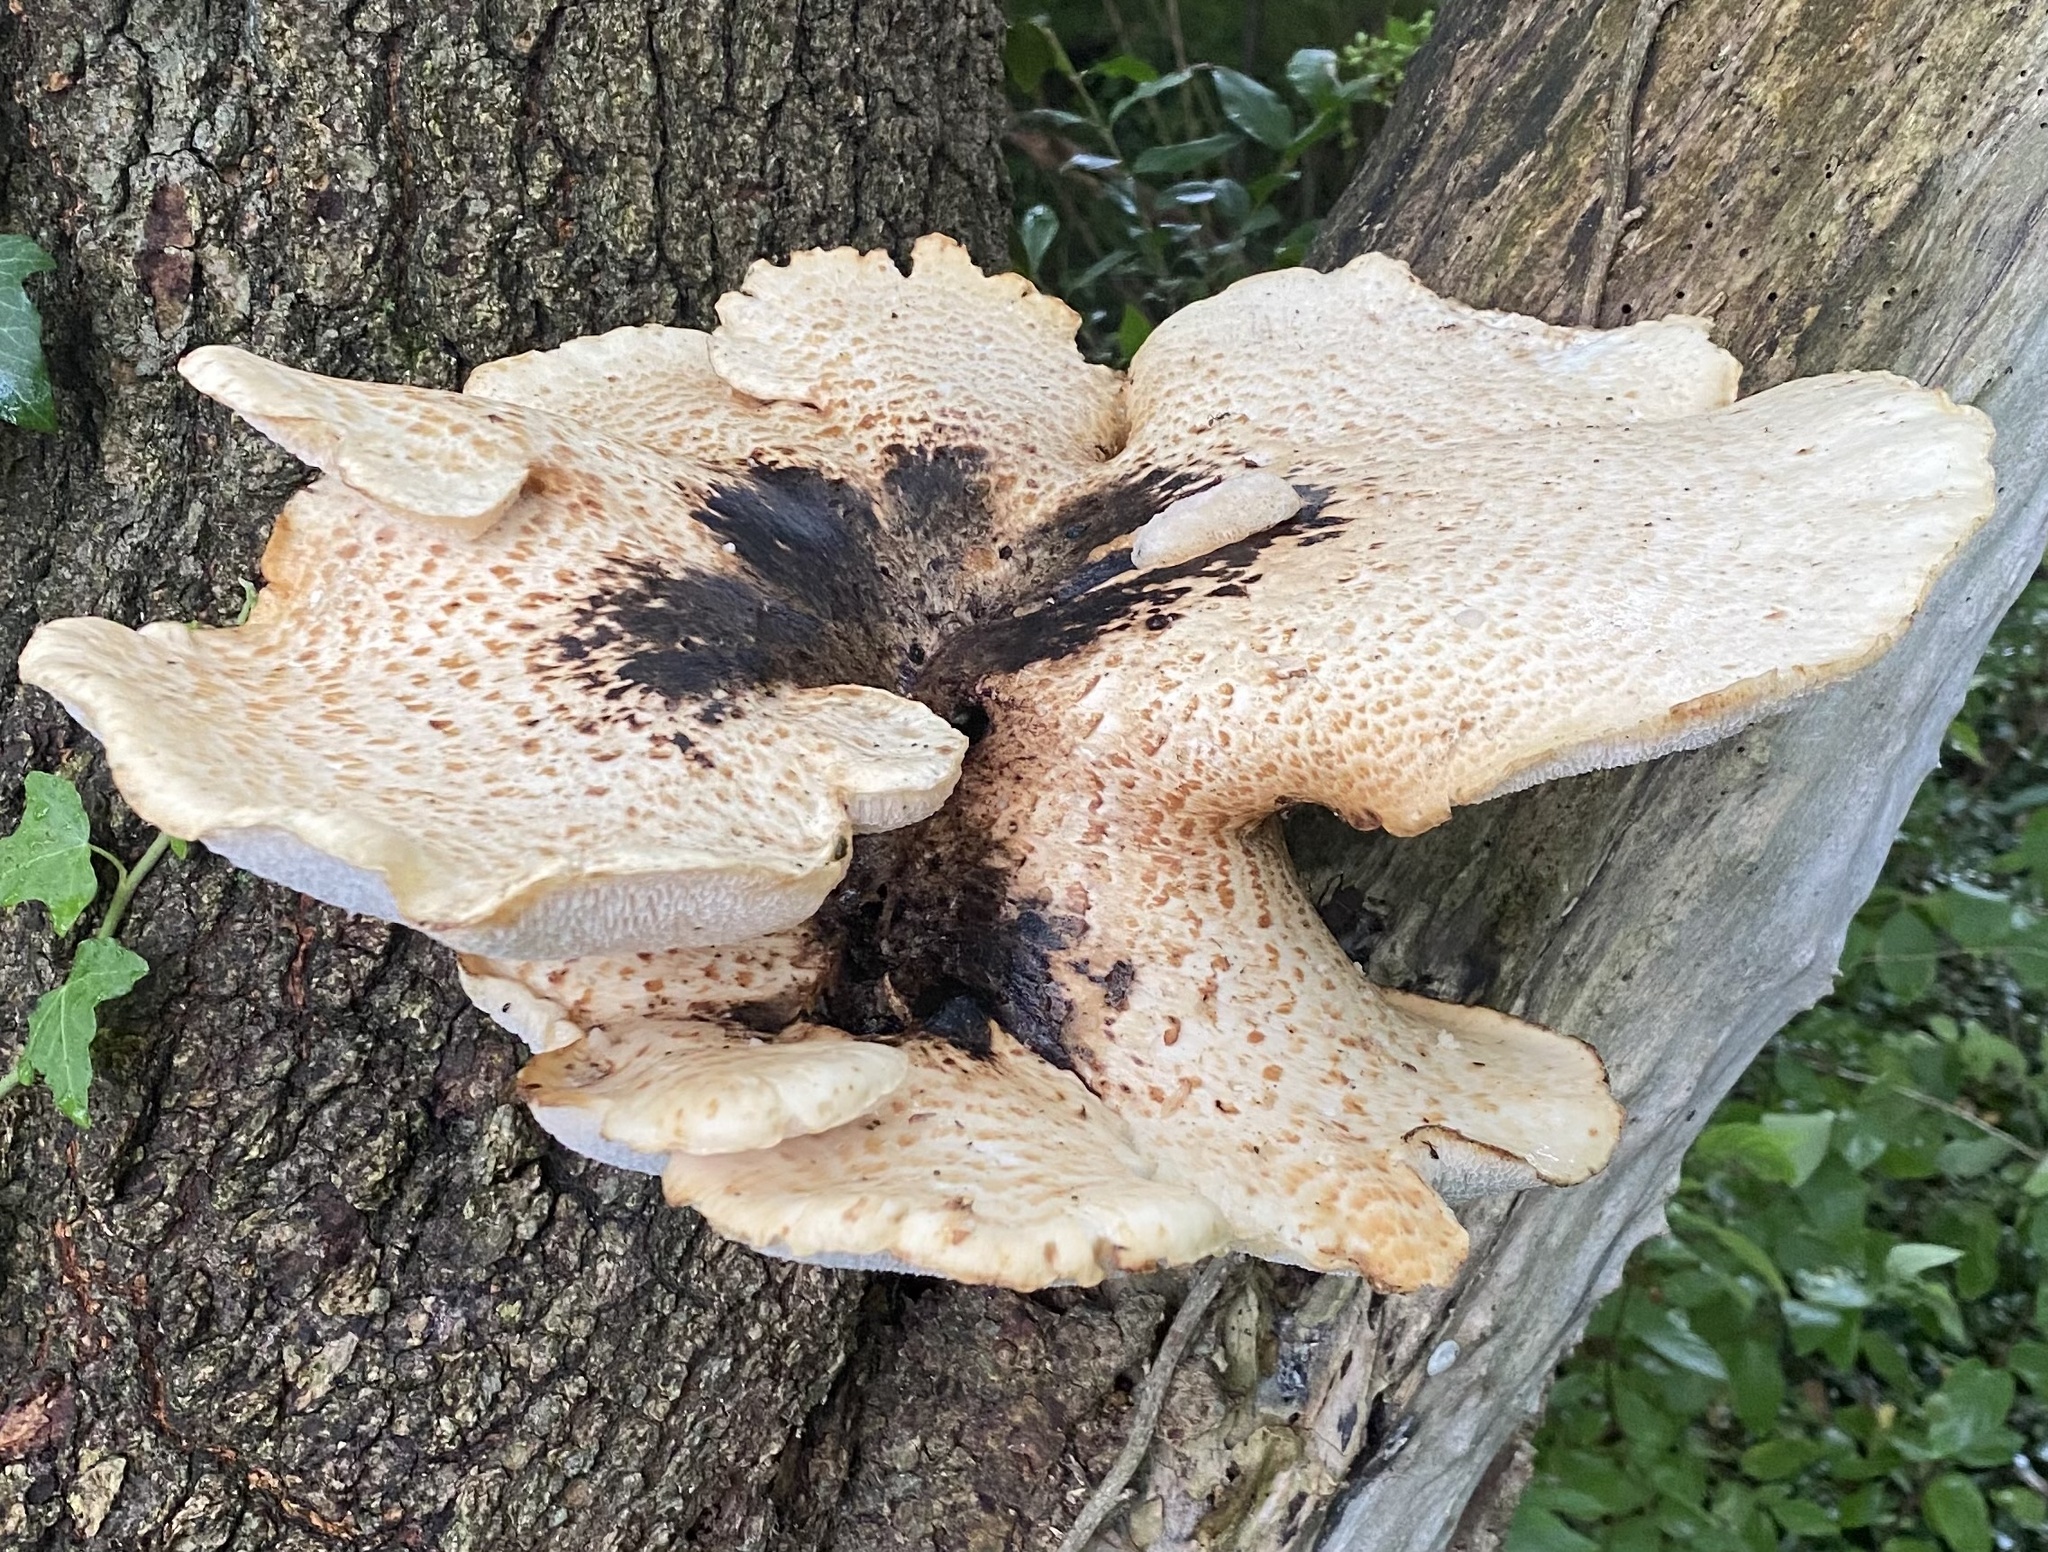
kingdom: Fungi
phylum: Basidiomycota
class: Agaricomycetes
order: Polyporales
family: Polyporaceae
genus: Cerioporus
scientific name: Cerioporus squamosus
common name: Dryad's saddle
